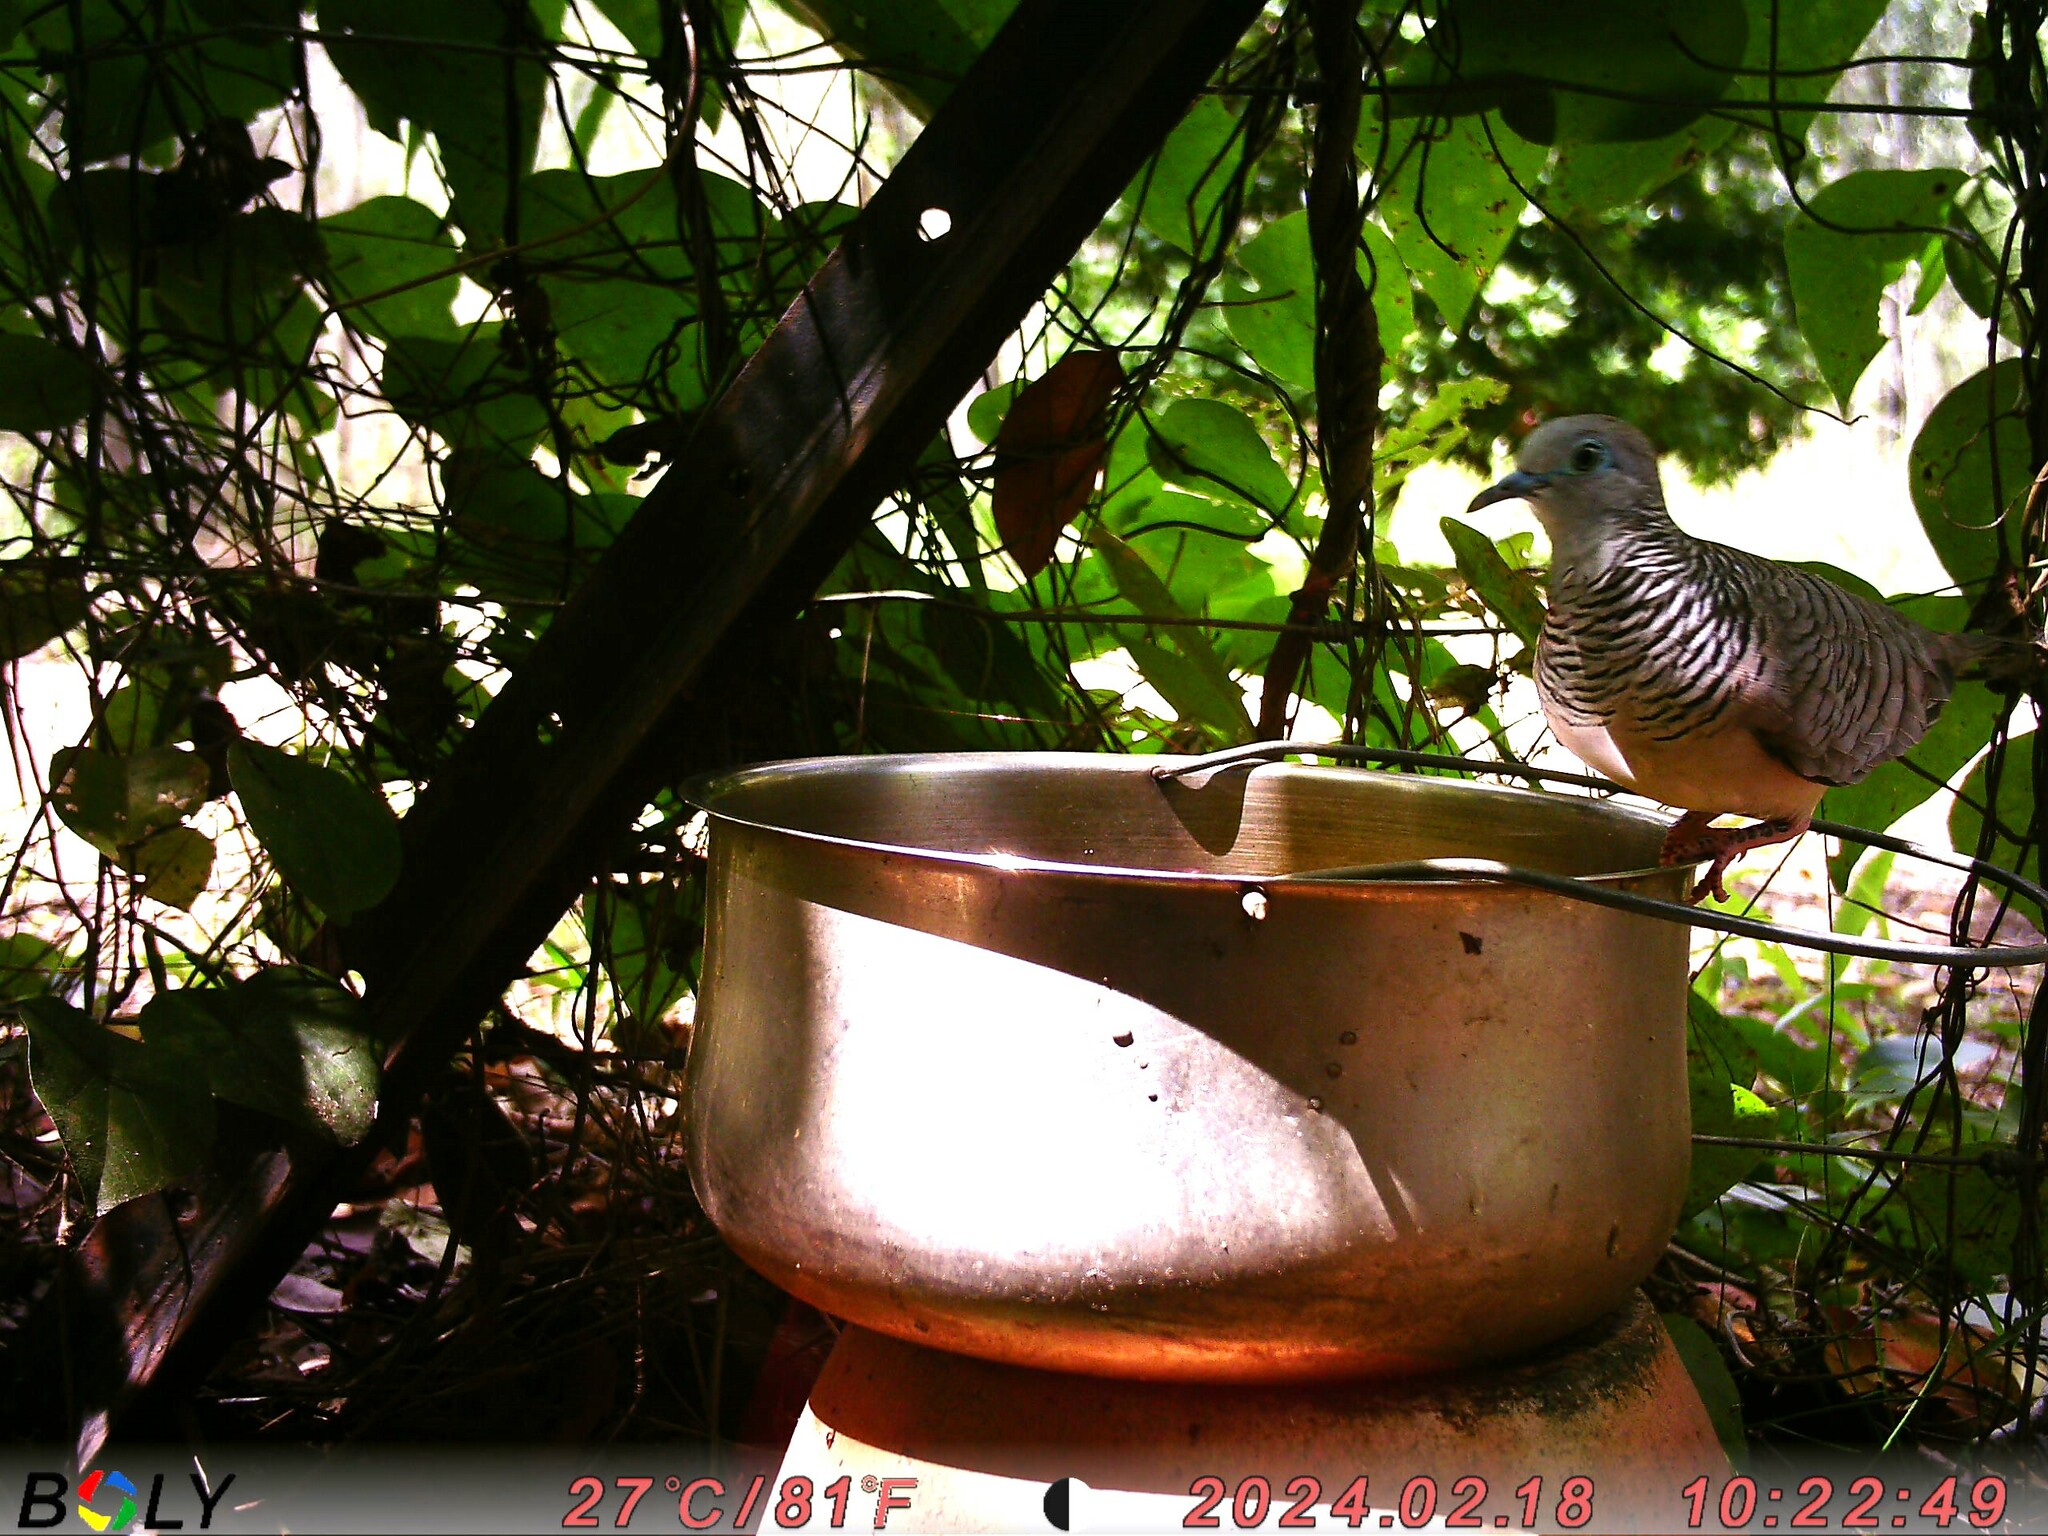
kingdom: Animalia
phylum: Chordata
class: Aves
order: Columbiformes
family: Columbidae
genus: Geopelia
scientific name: Geopelia placida
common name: Peaceful dove
